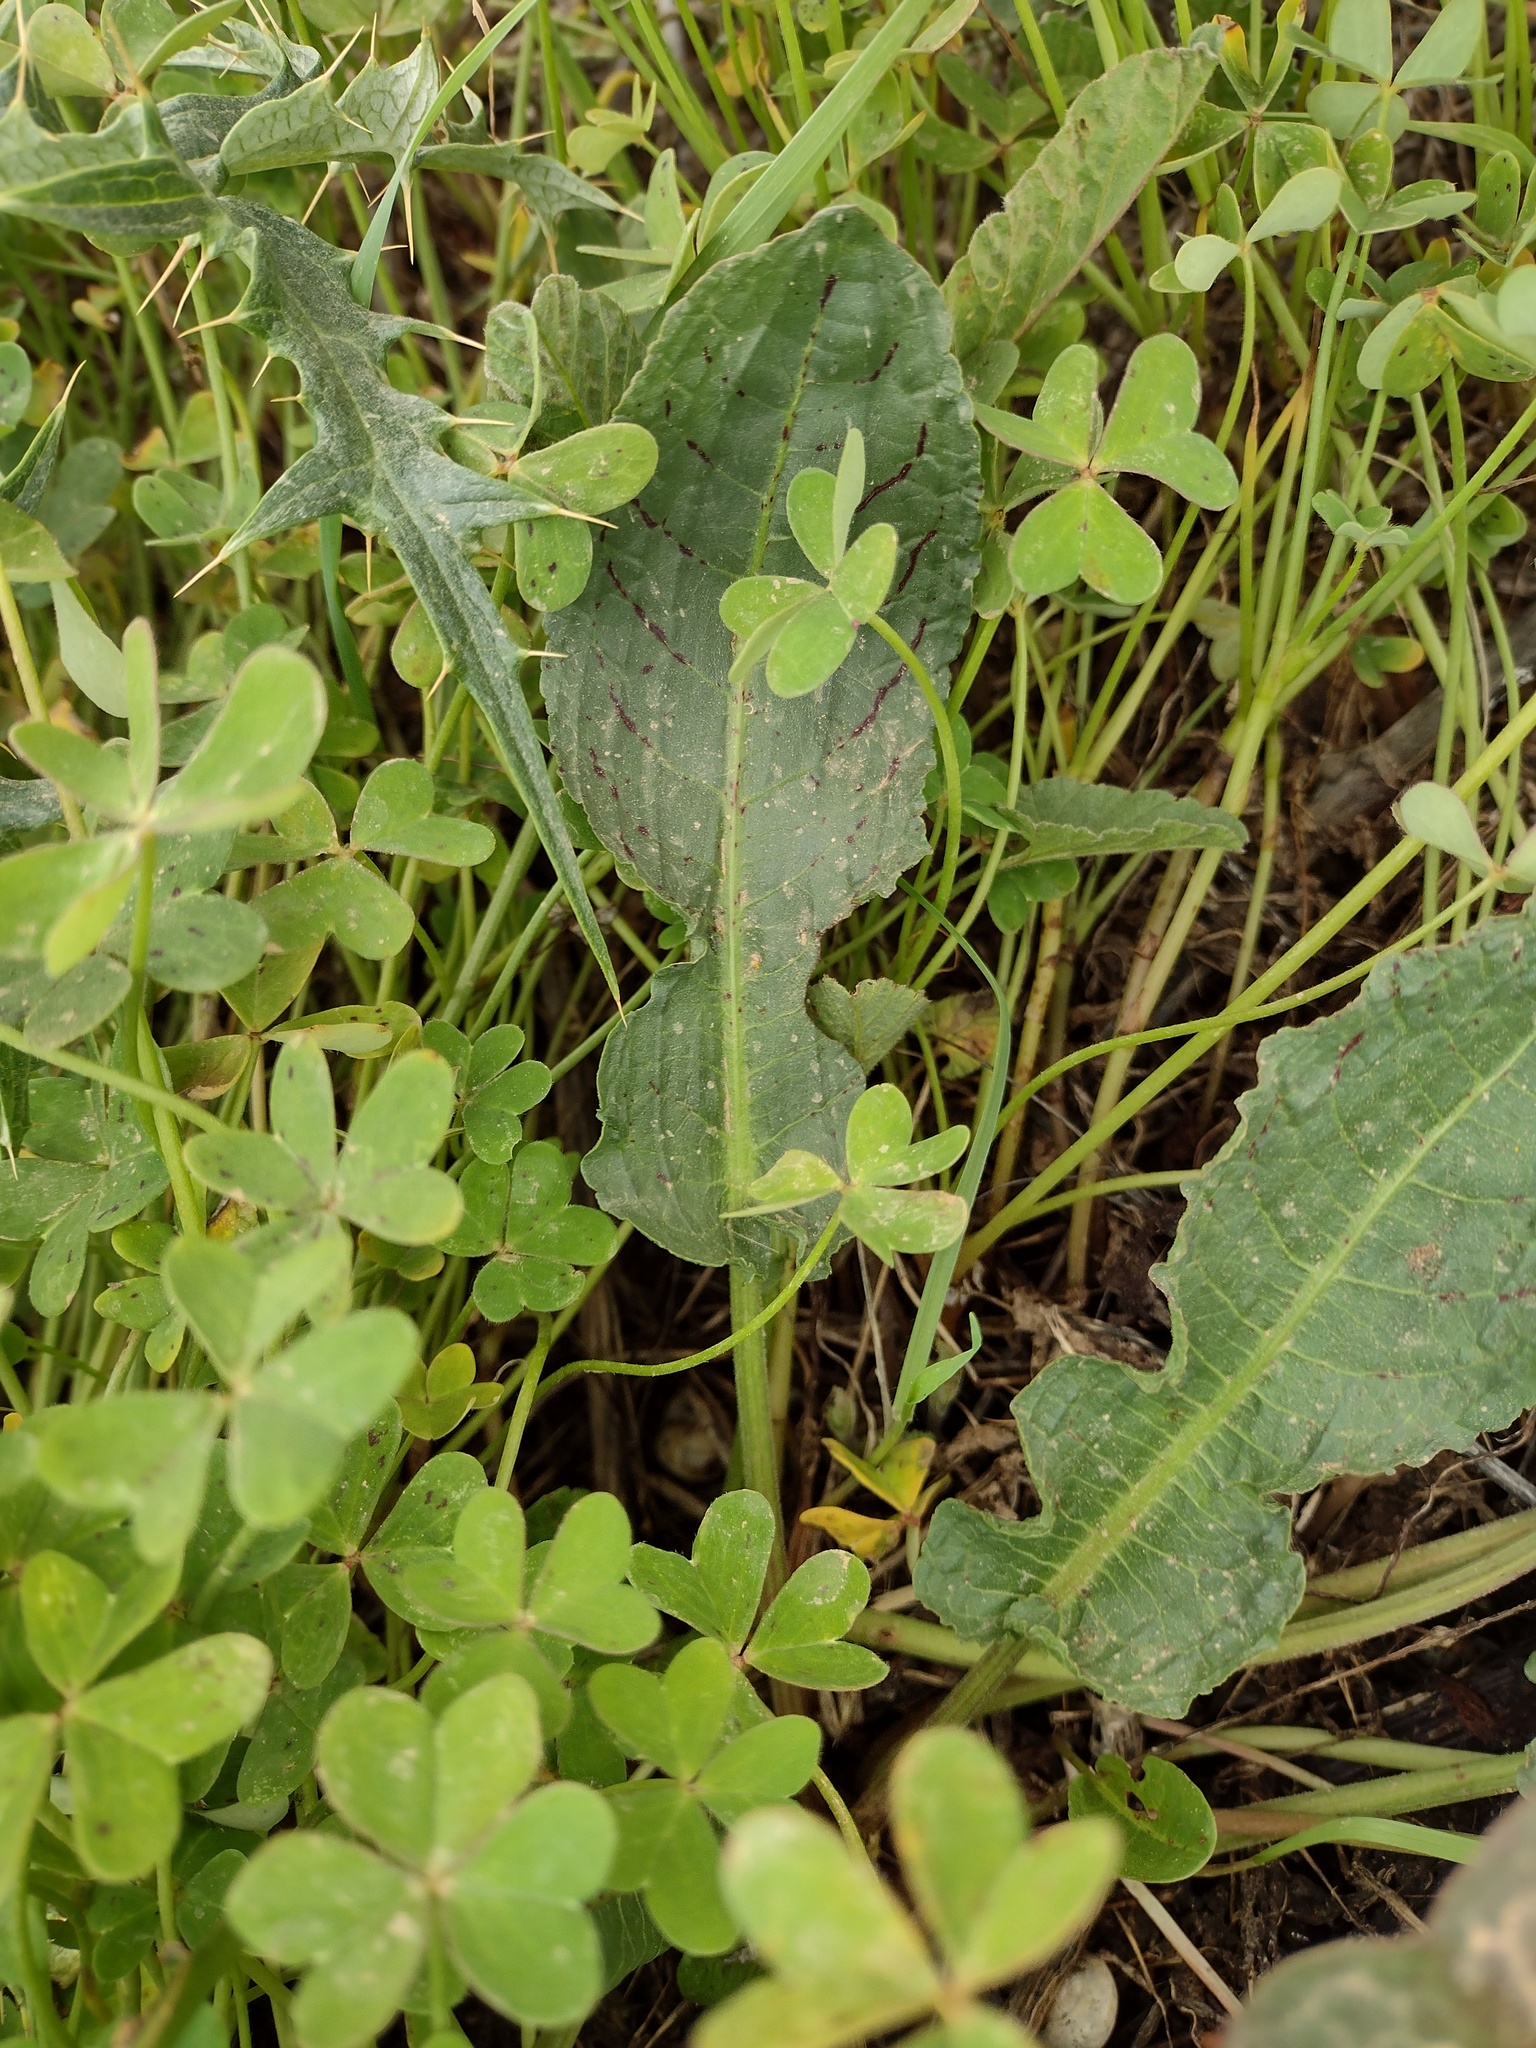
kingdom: Plantae
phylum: Tracheophyta
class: Magnoliopsida
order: Caryophyllales
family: Polygonaceae
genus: Rumex
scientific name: Rumex pulcher
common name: Fiddle dock
